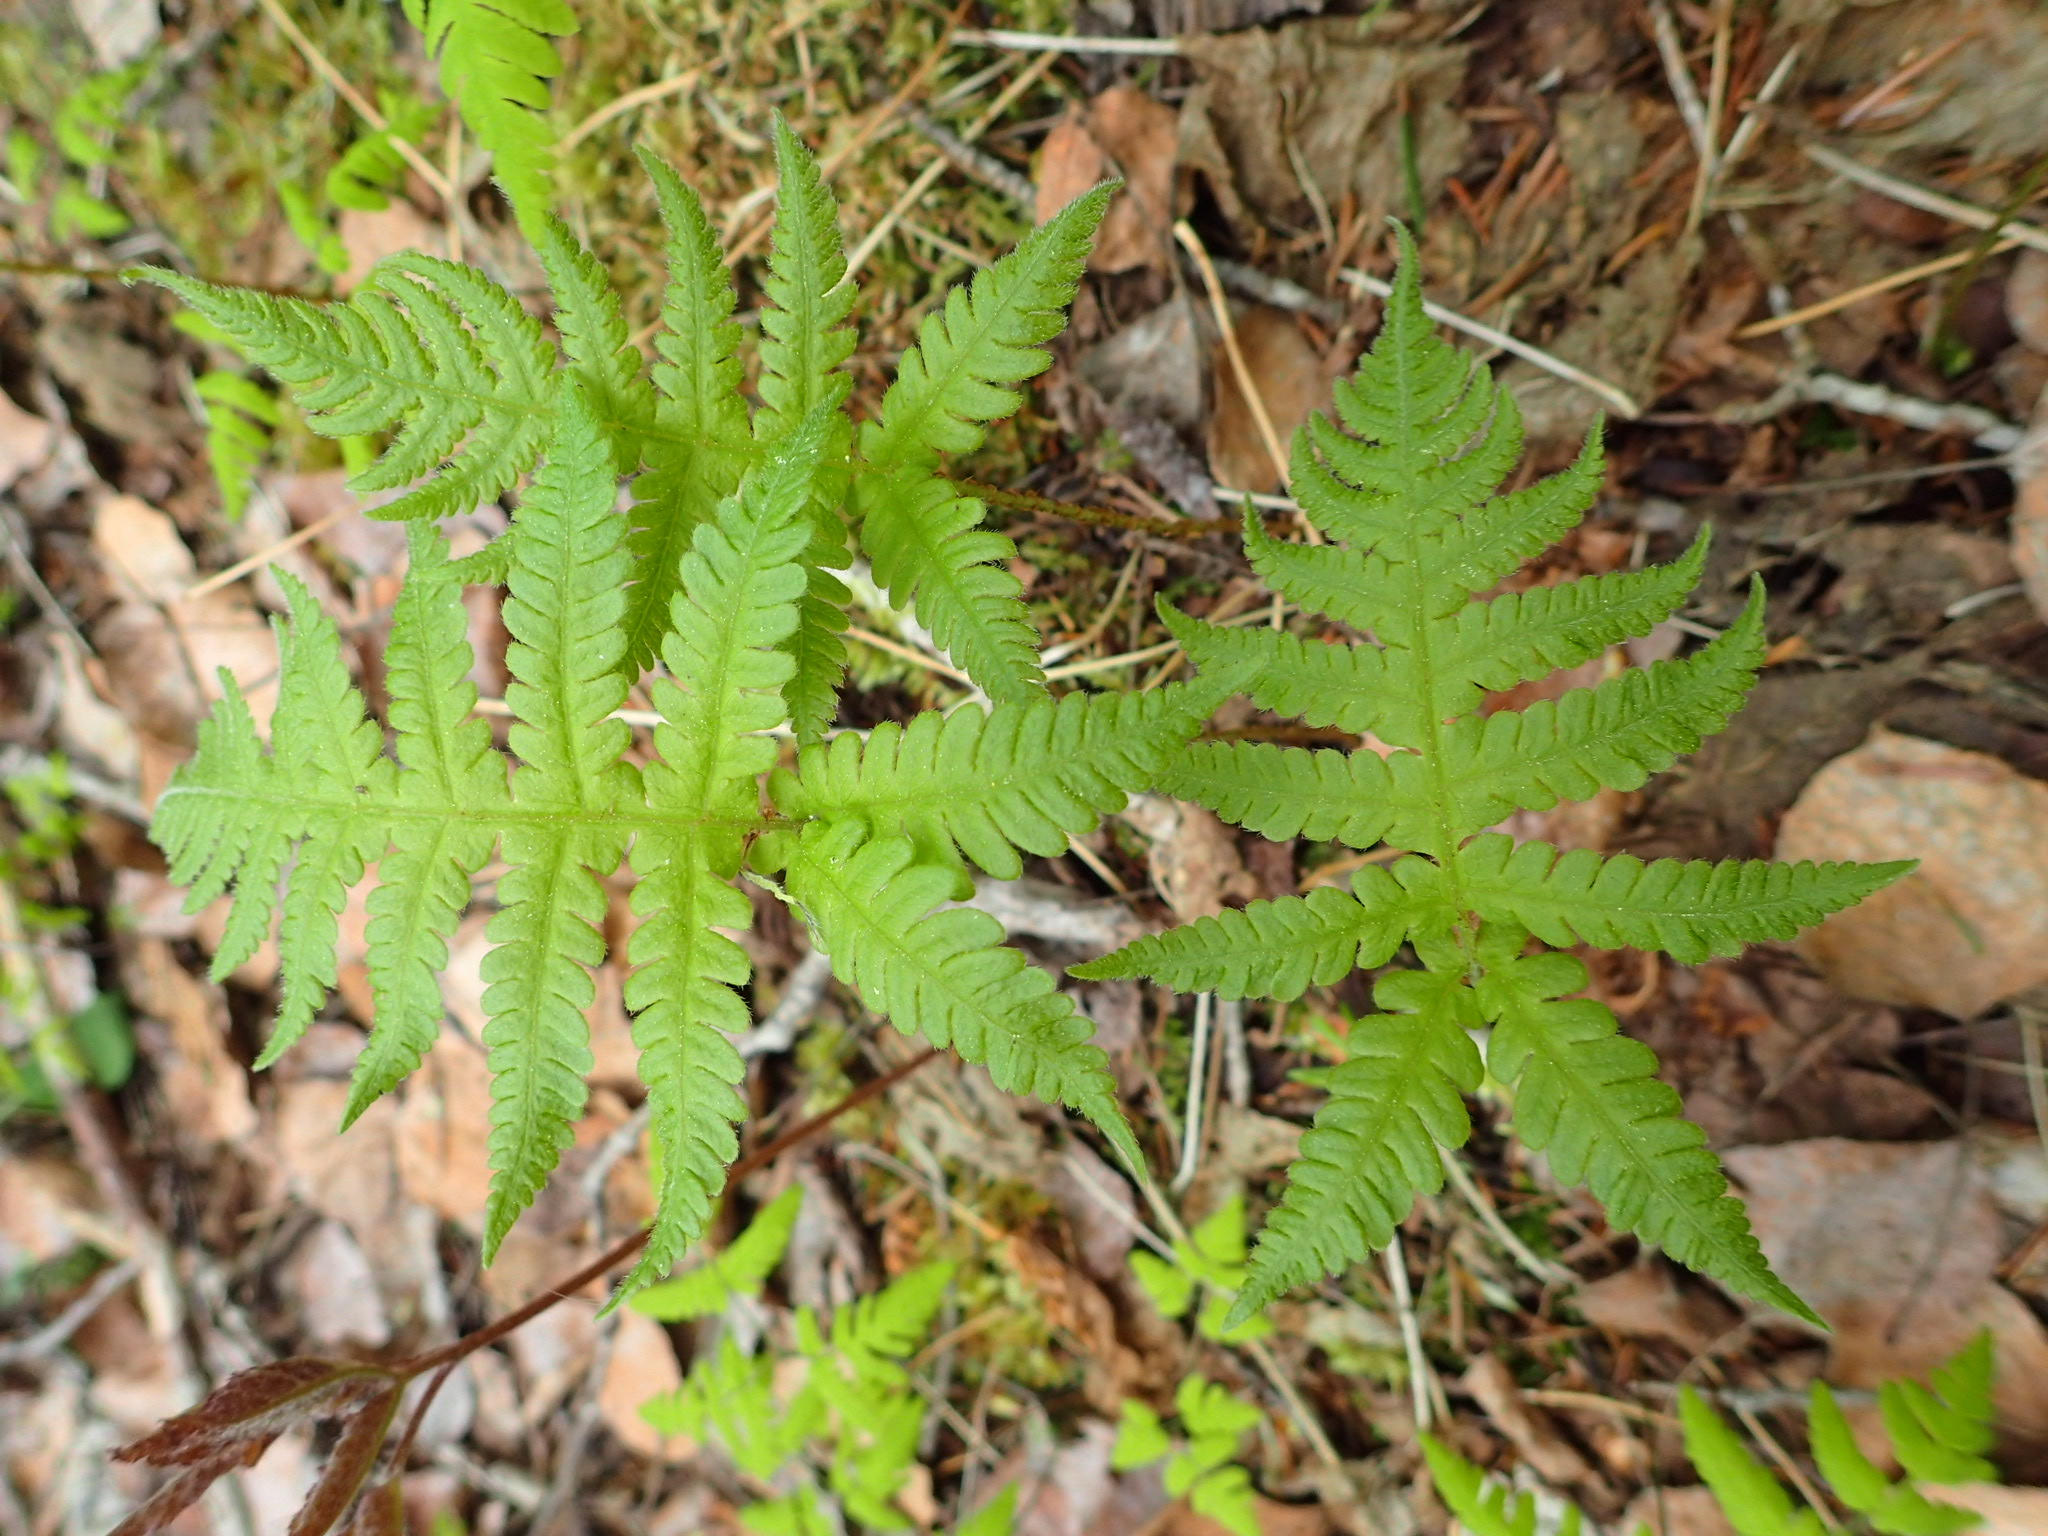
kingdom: Plantae
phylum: Tracheophyta
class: Polypodiopsida
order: Polypodiales
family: Thelypteridaceae
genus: Phegopteris
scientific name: Phegopteris connectilis
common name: Beech fern
